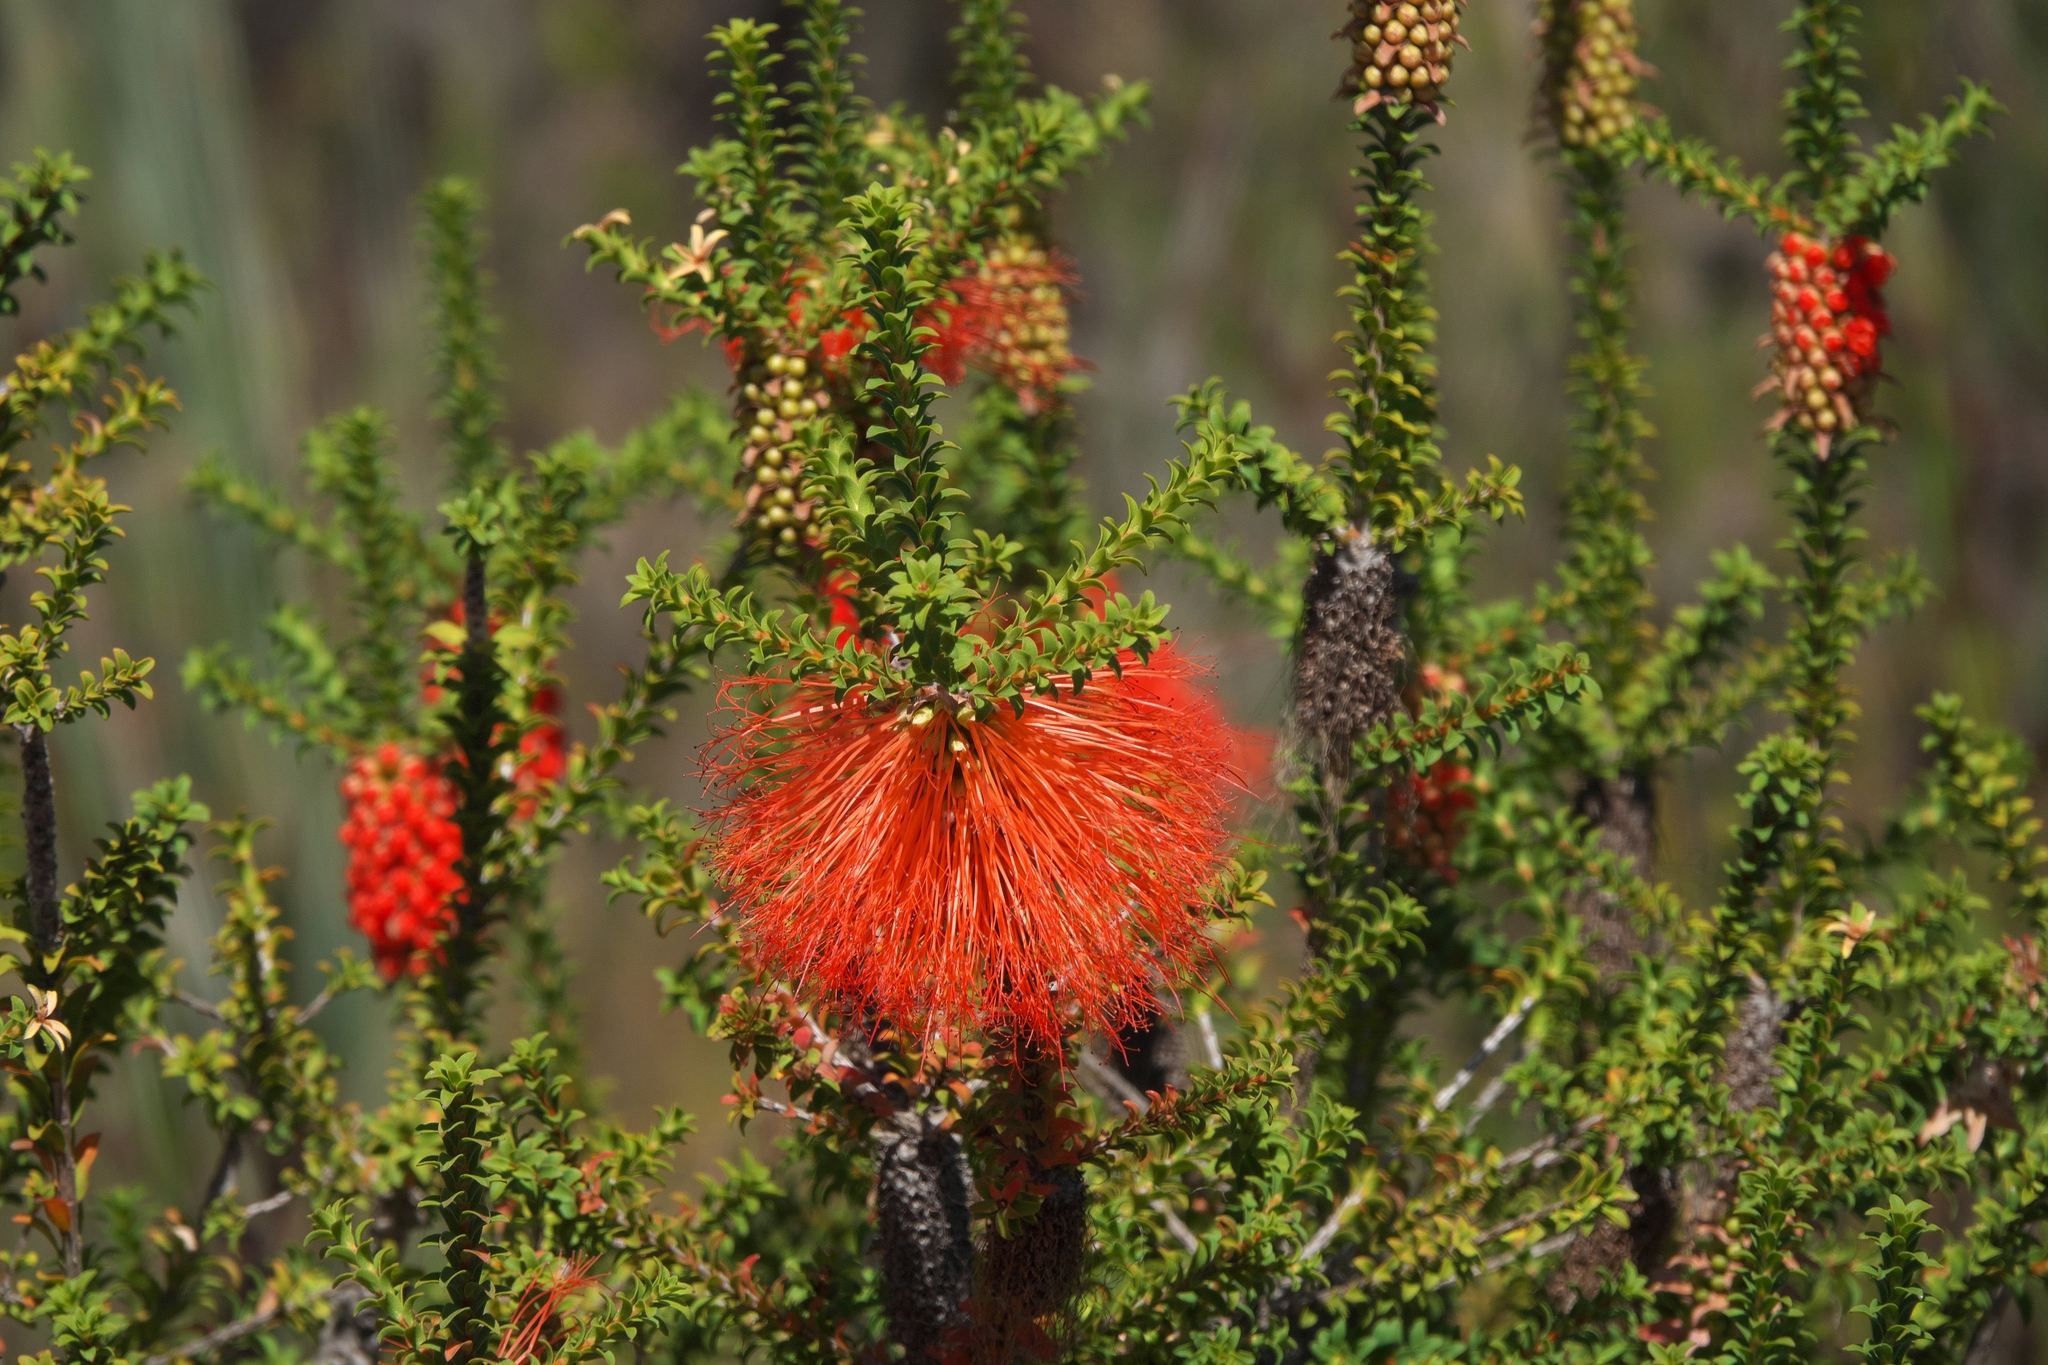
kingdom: Plantae
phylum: Tracheophyta
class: Magnoliopsida
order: Myrtales
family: Myrtaceae
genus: Melaleuca
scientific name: Melaleuca sparsa
